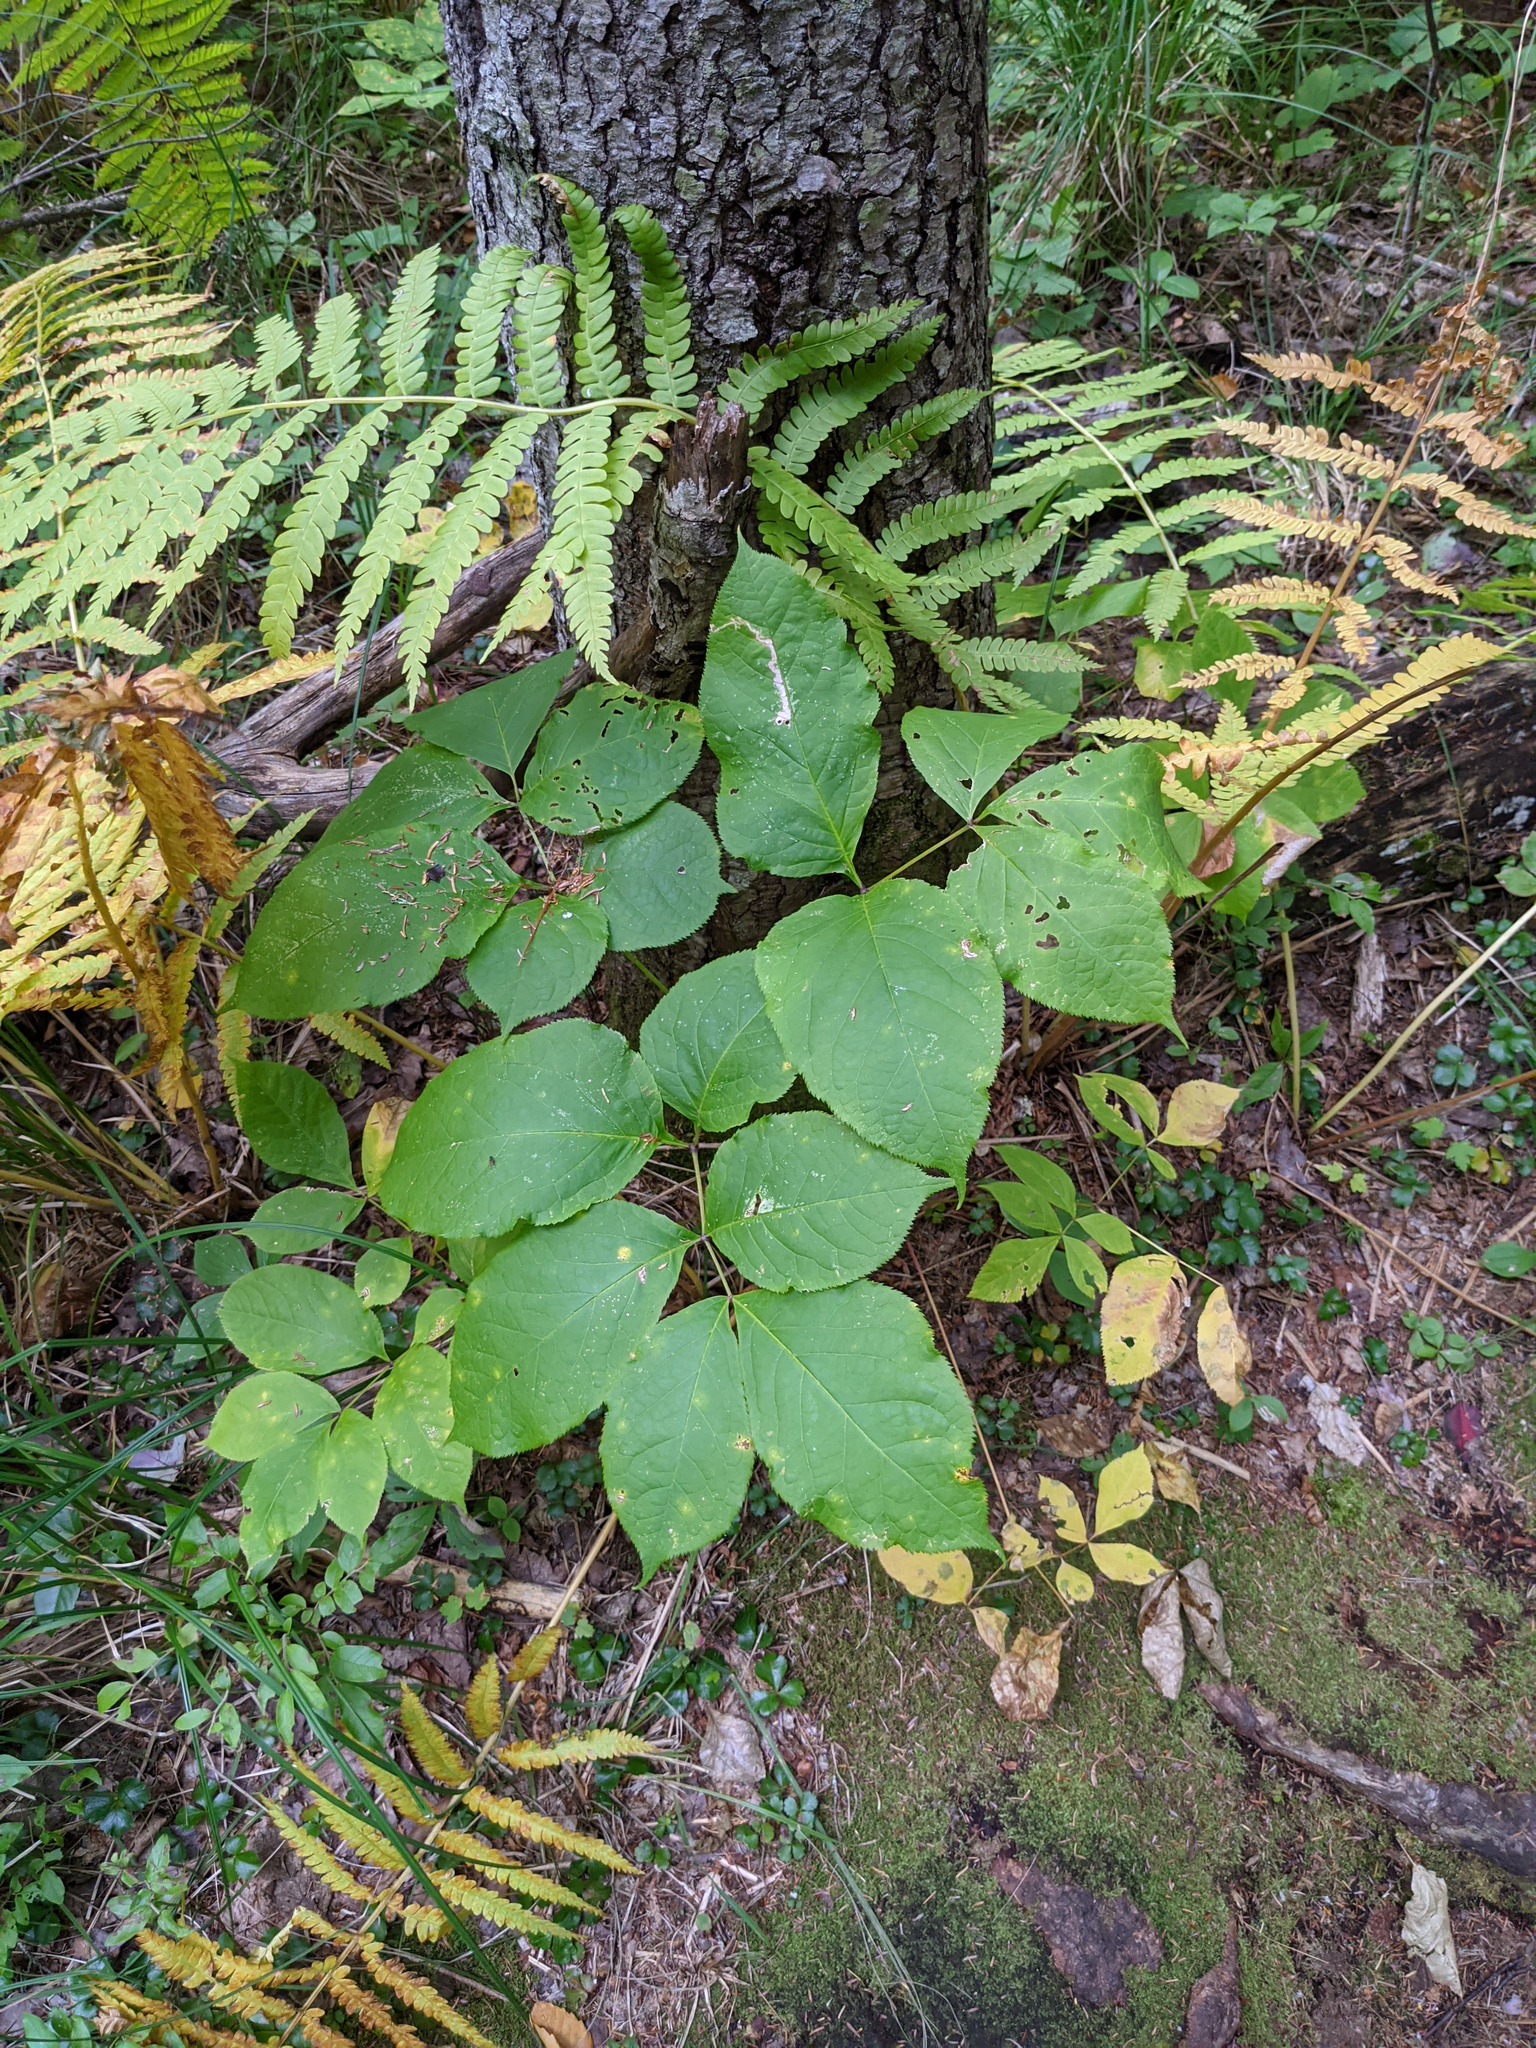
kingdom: Plantae
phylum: Tracheophyta
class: Magnoliopsida
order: Apiales
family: Araliaceae
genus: Aralia
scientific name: Aralia nudicaulis
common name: Wild sarsaparilla
